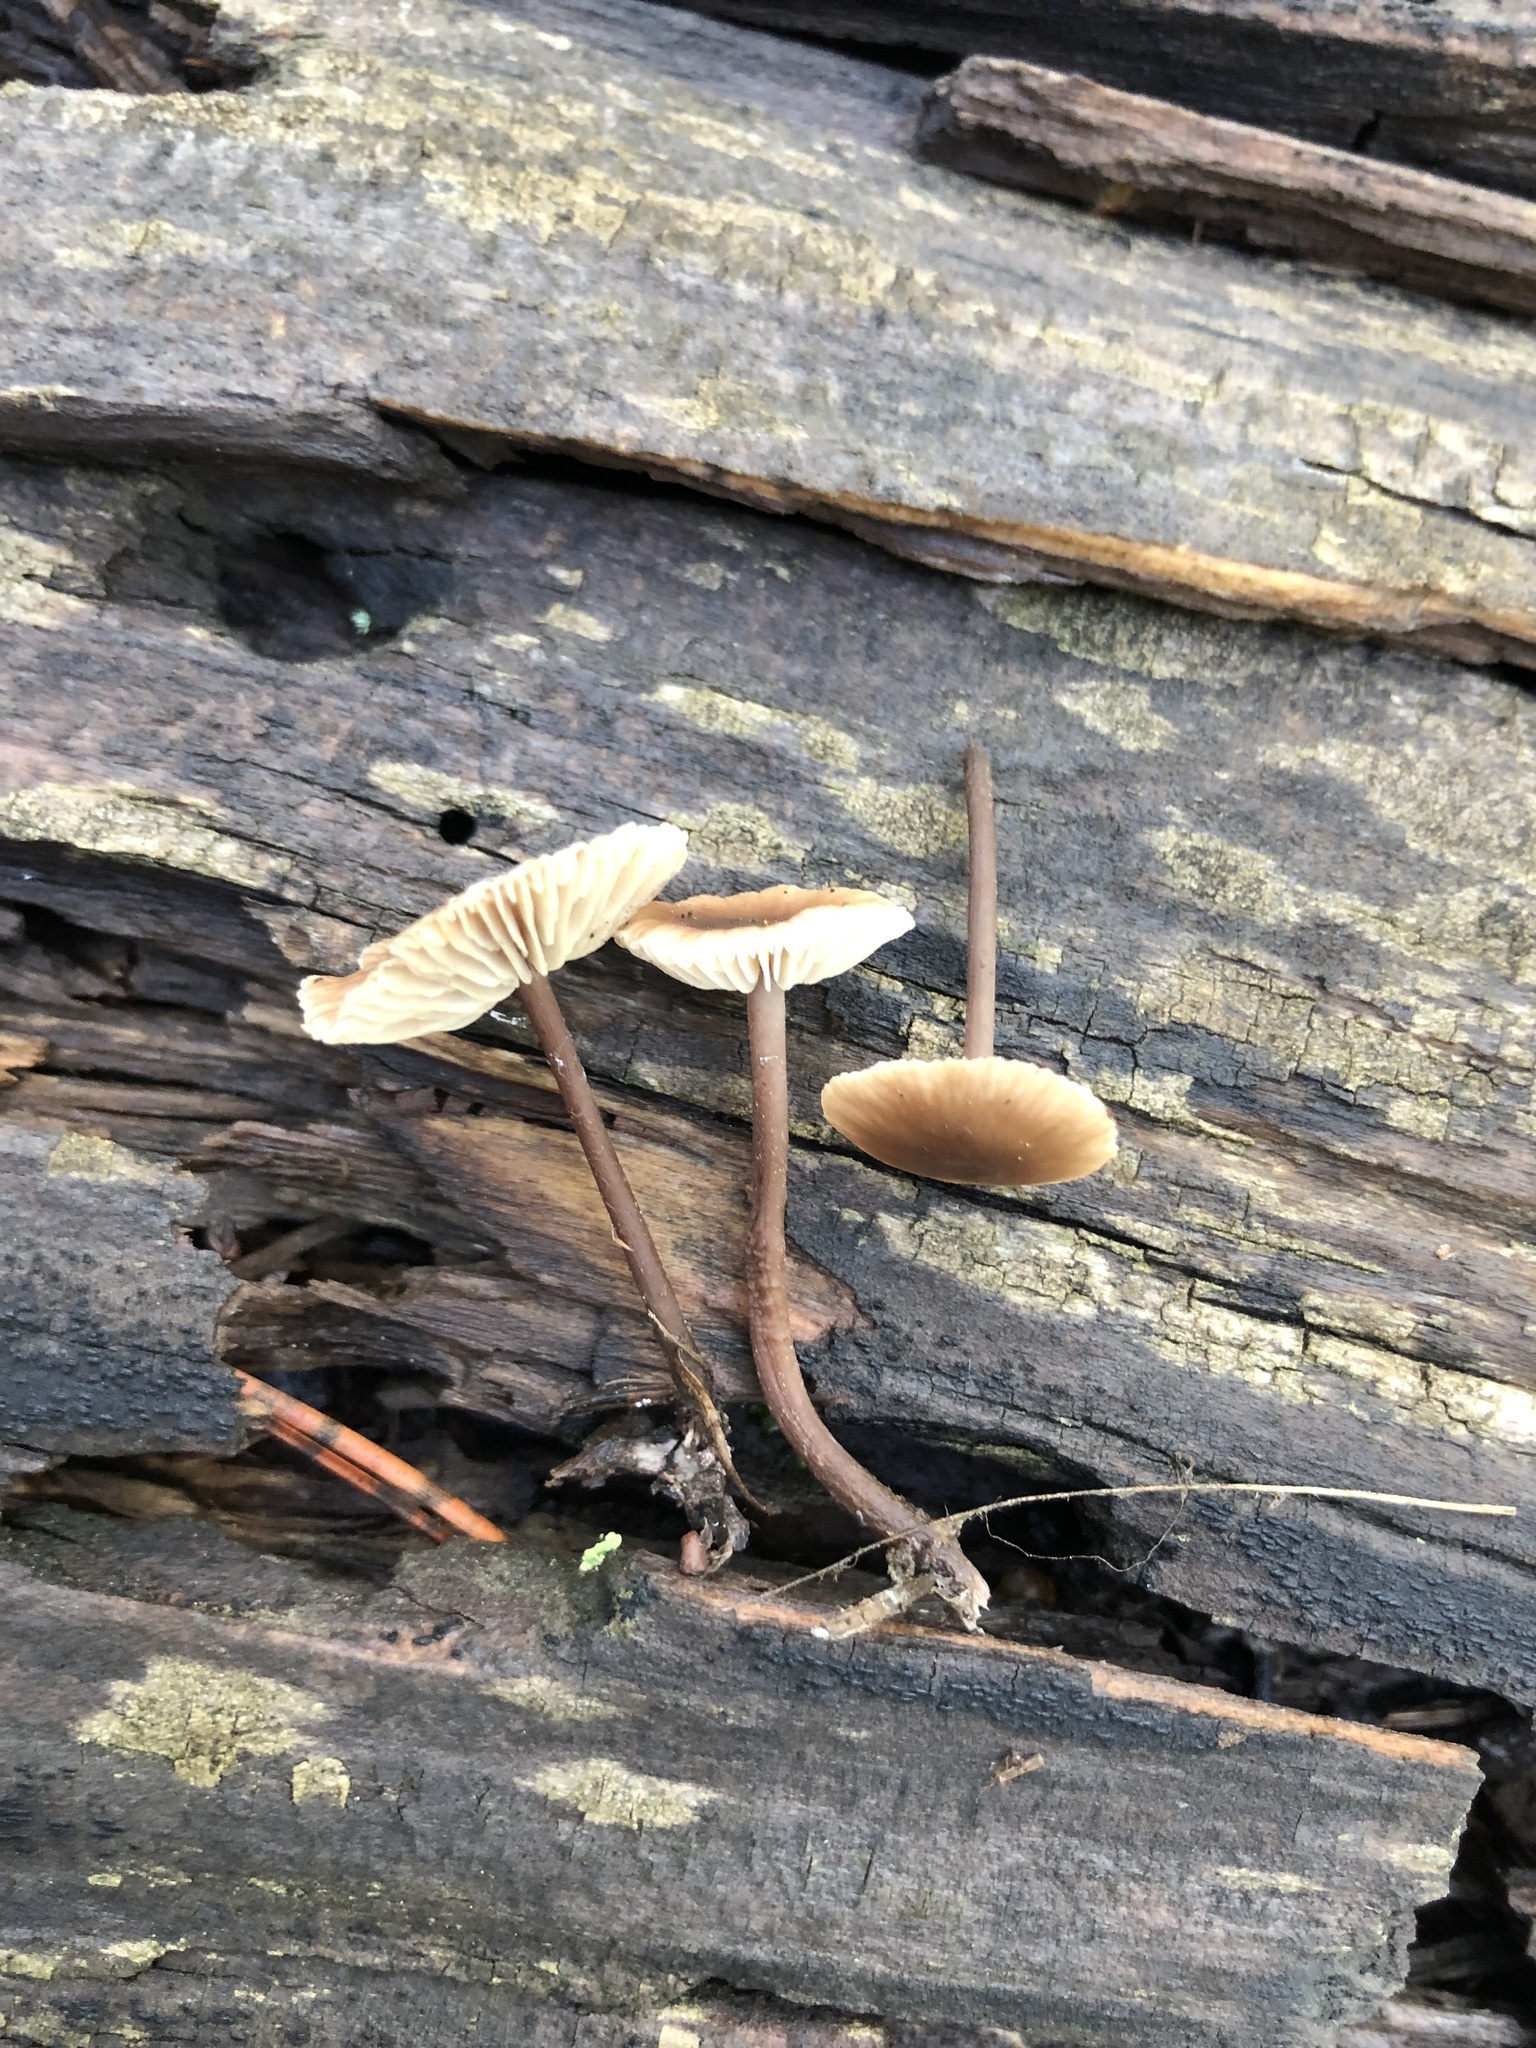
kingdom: Fungi
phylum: Basidiomycota
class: Agaricomycetes
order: Agaricales
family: Omphalotaceae
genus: Gymnopus
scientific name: Gymnopus fuscopurpureus
